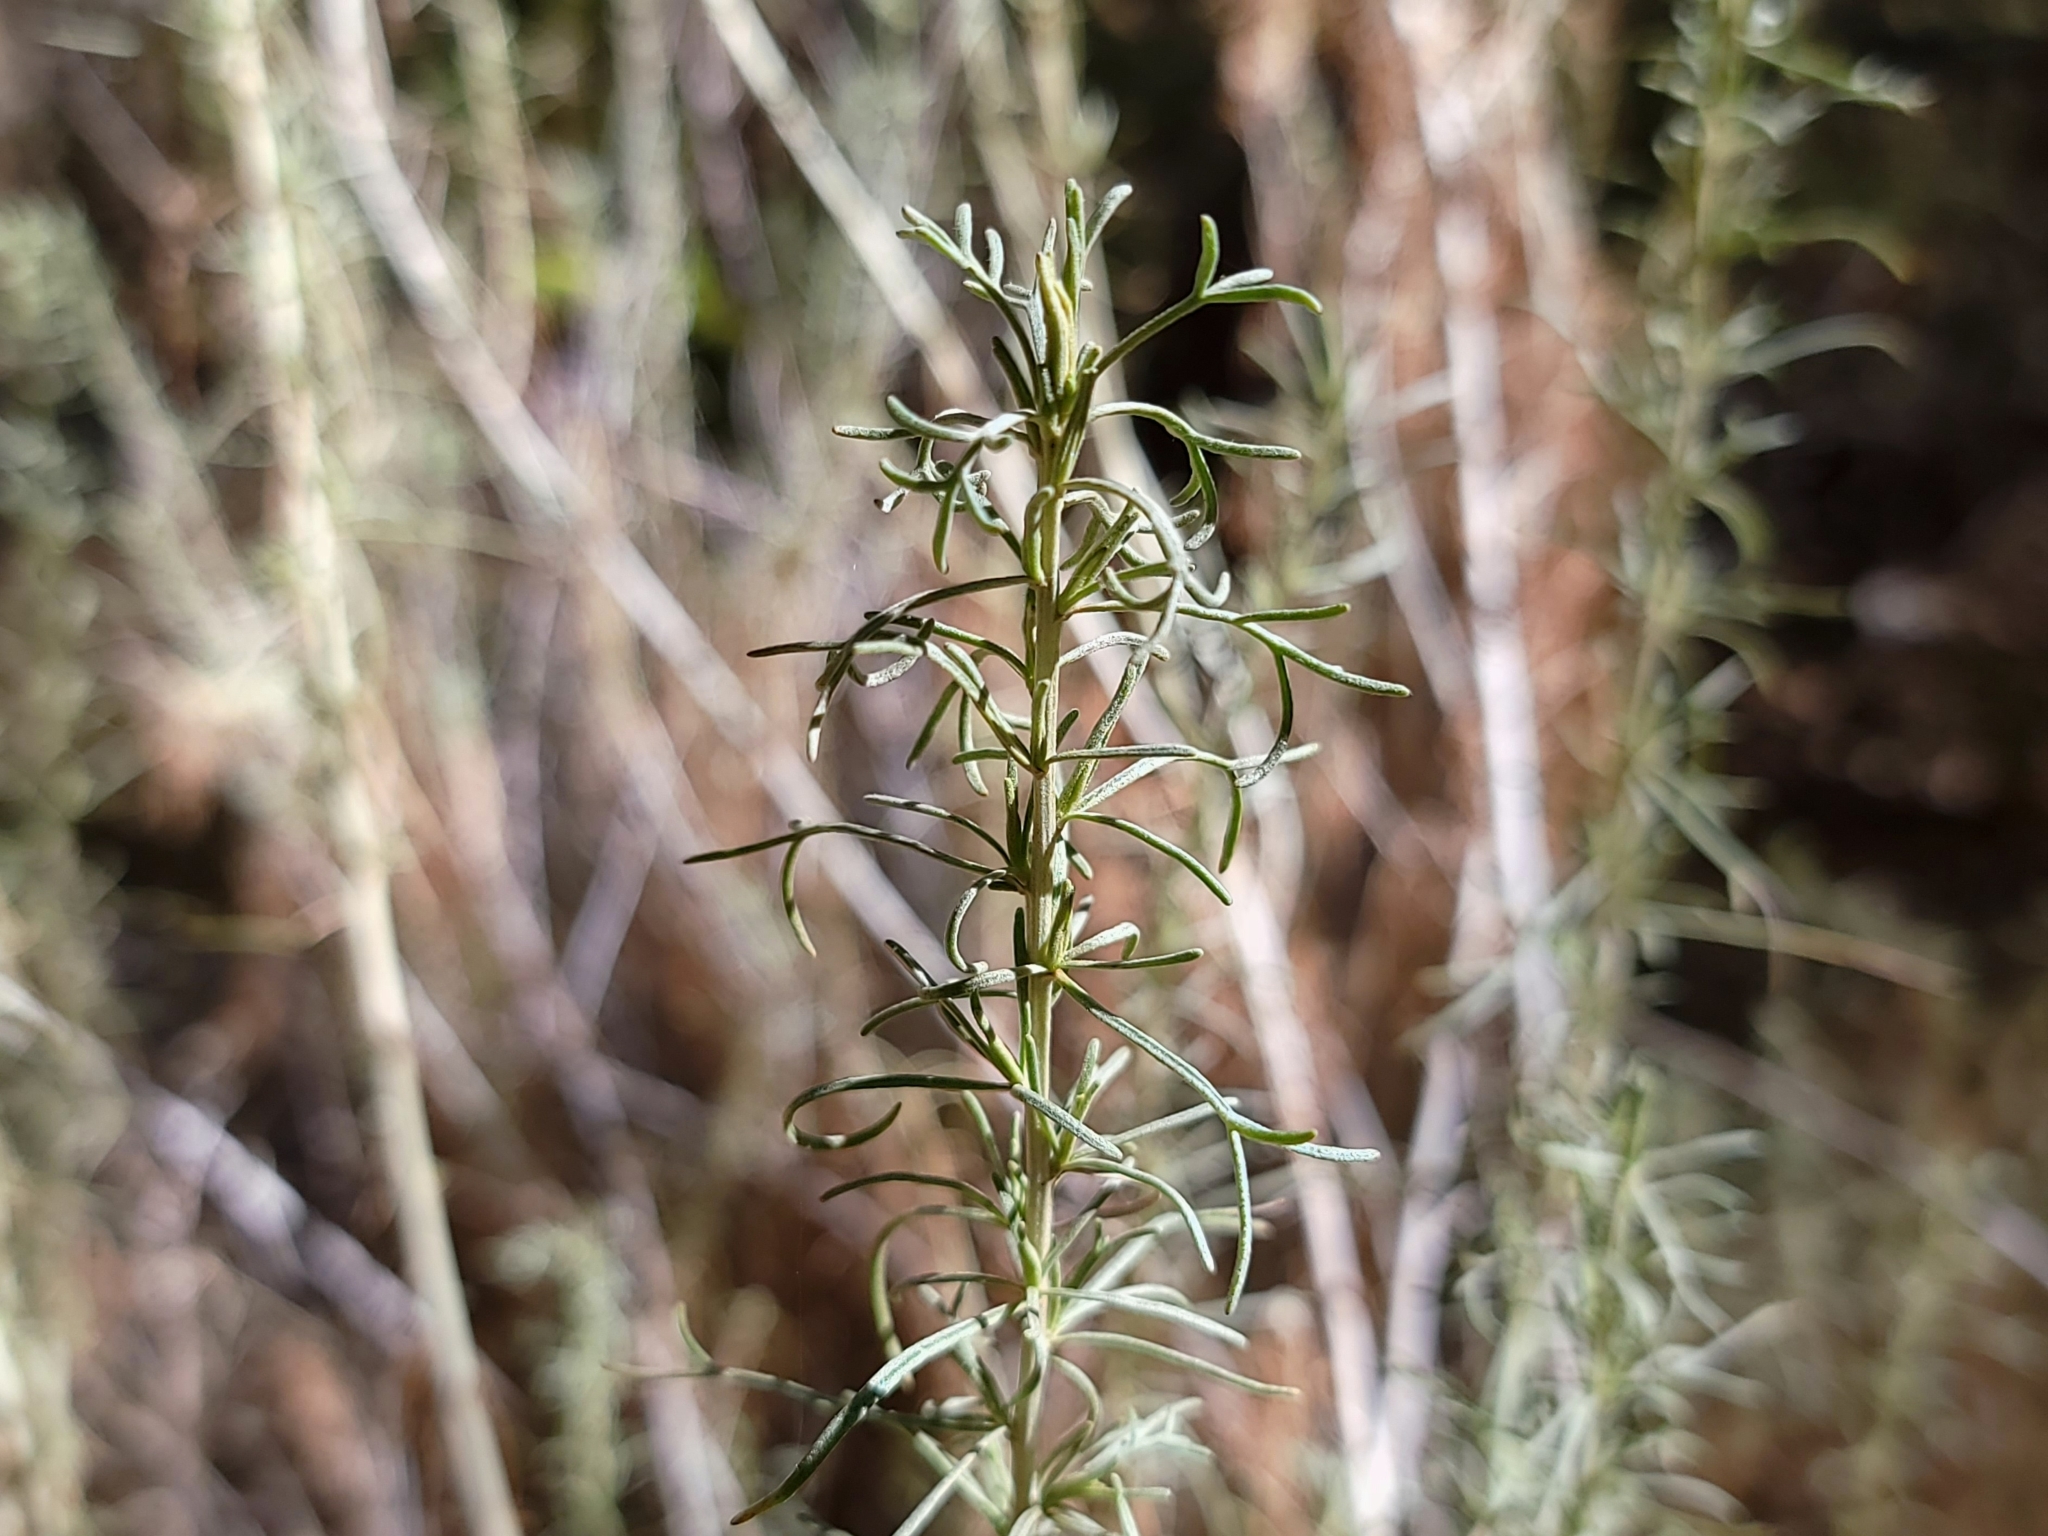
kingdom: Plantae
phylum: Tracheophyta
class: Magnoliopsida
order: Asterales
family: Asteraceae
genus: Artemisia
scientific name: Artemisia californica
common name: California sagebrush
